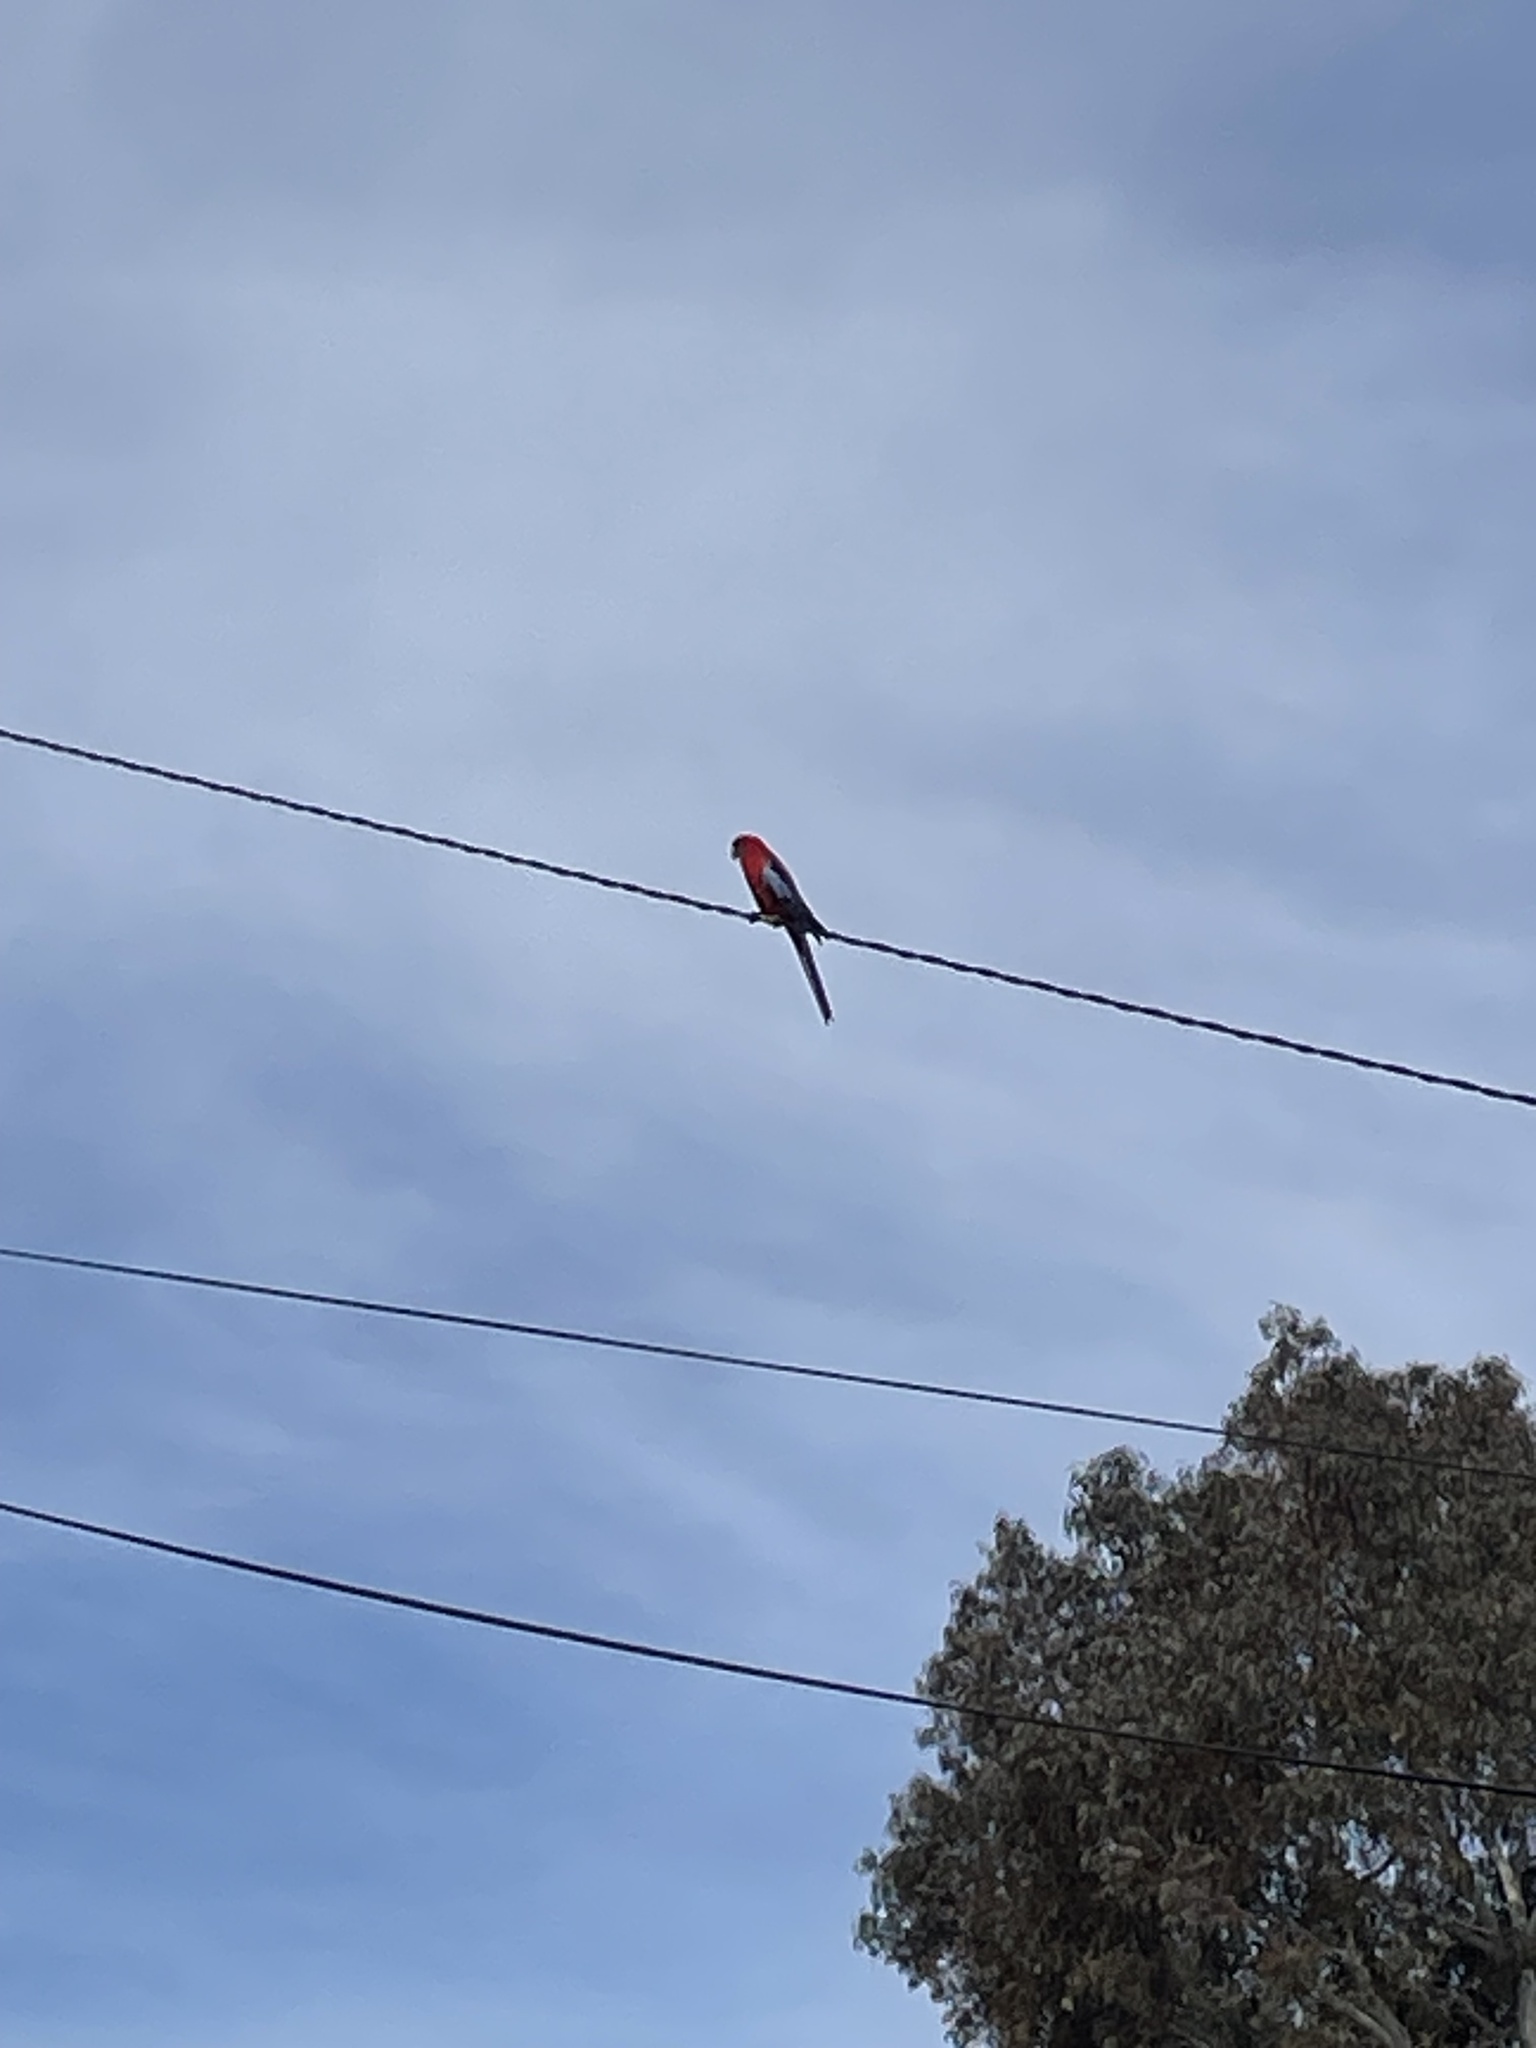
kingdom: Animalia
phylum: Chordata
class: Aves
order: Psittaciformes
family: Psittacidae
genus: Platycercus
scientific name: Platycercus elegans
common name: Crimson rosella
